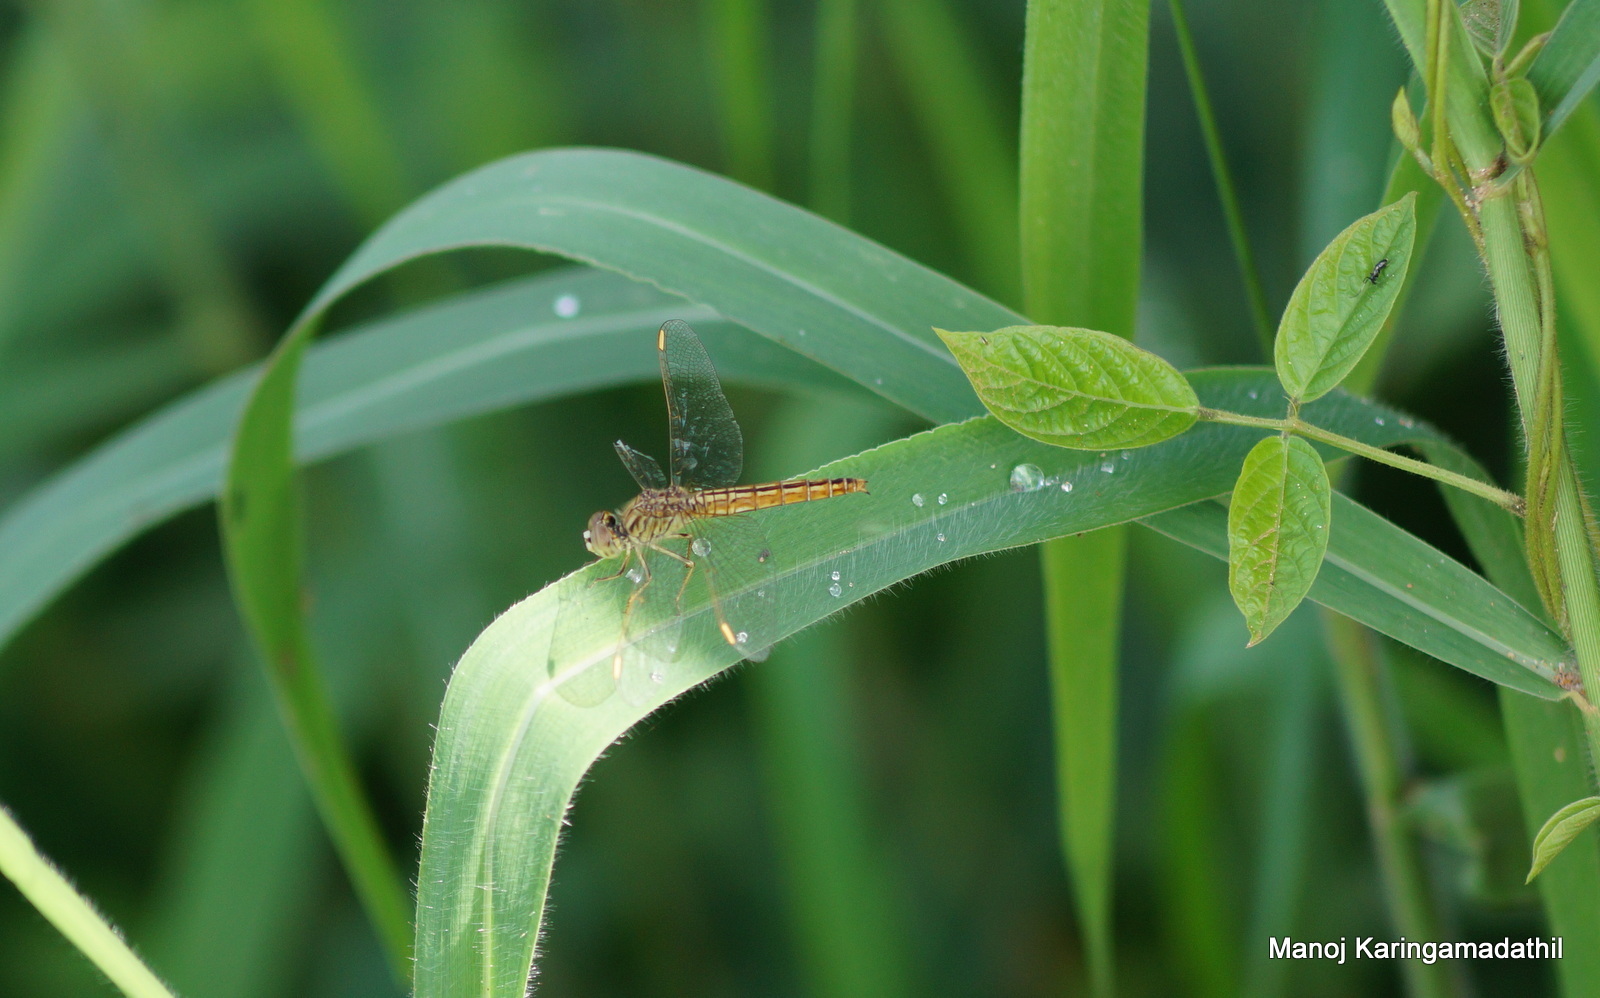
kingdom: Animalia
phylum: Arthropoda
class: Insecta
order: Odonata
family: Libellulidae
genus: Brachythemis
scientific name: Brachythemis contaminata
